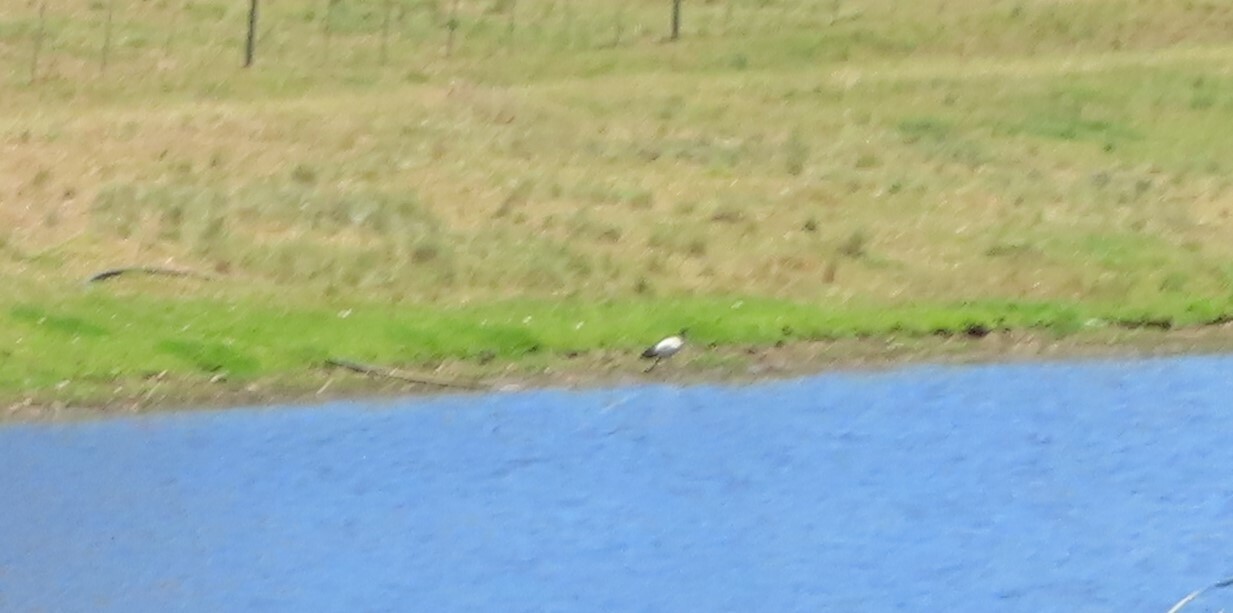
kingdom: Animalia
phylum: Chordata
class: Aves
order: Pelecaniformes
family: Threskiornithidae
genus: Threskiornis
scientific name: Threskiornis aethiopicus
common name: Sacred ibis
